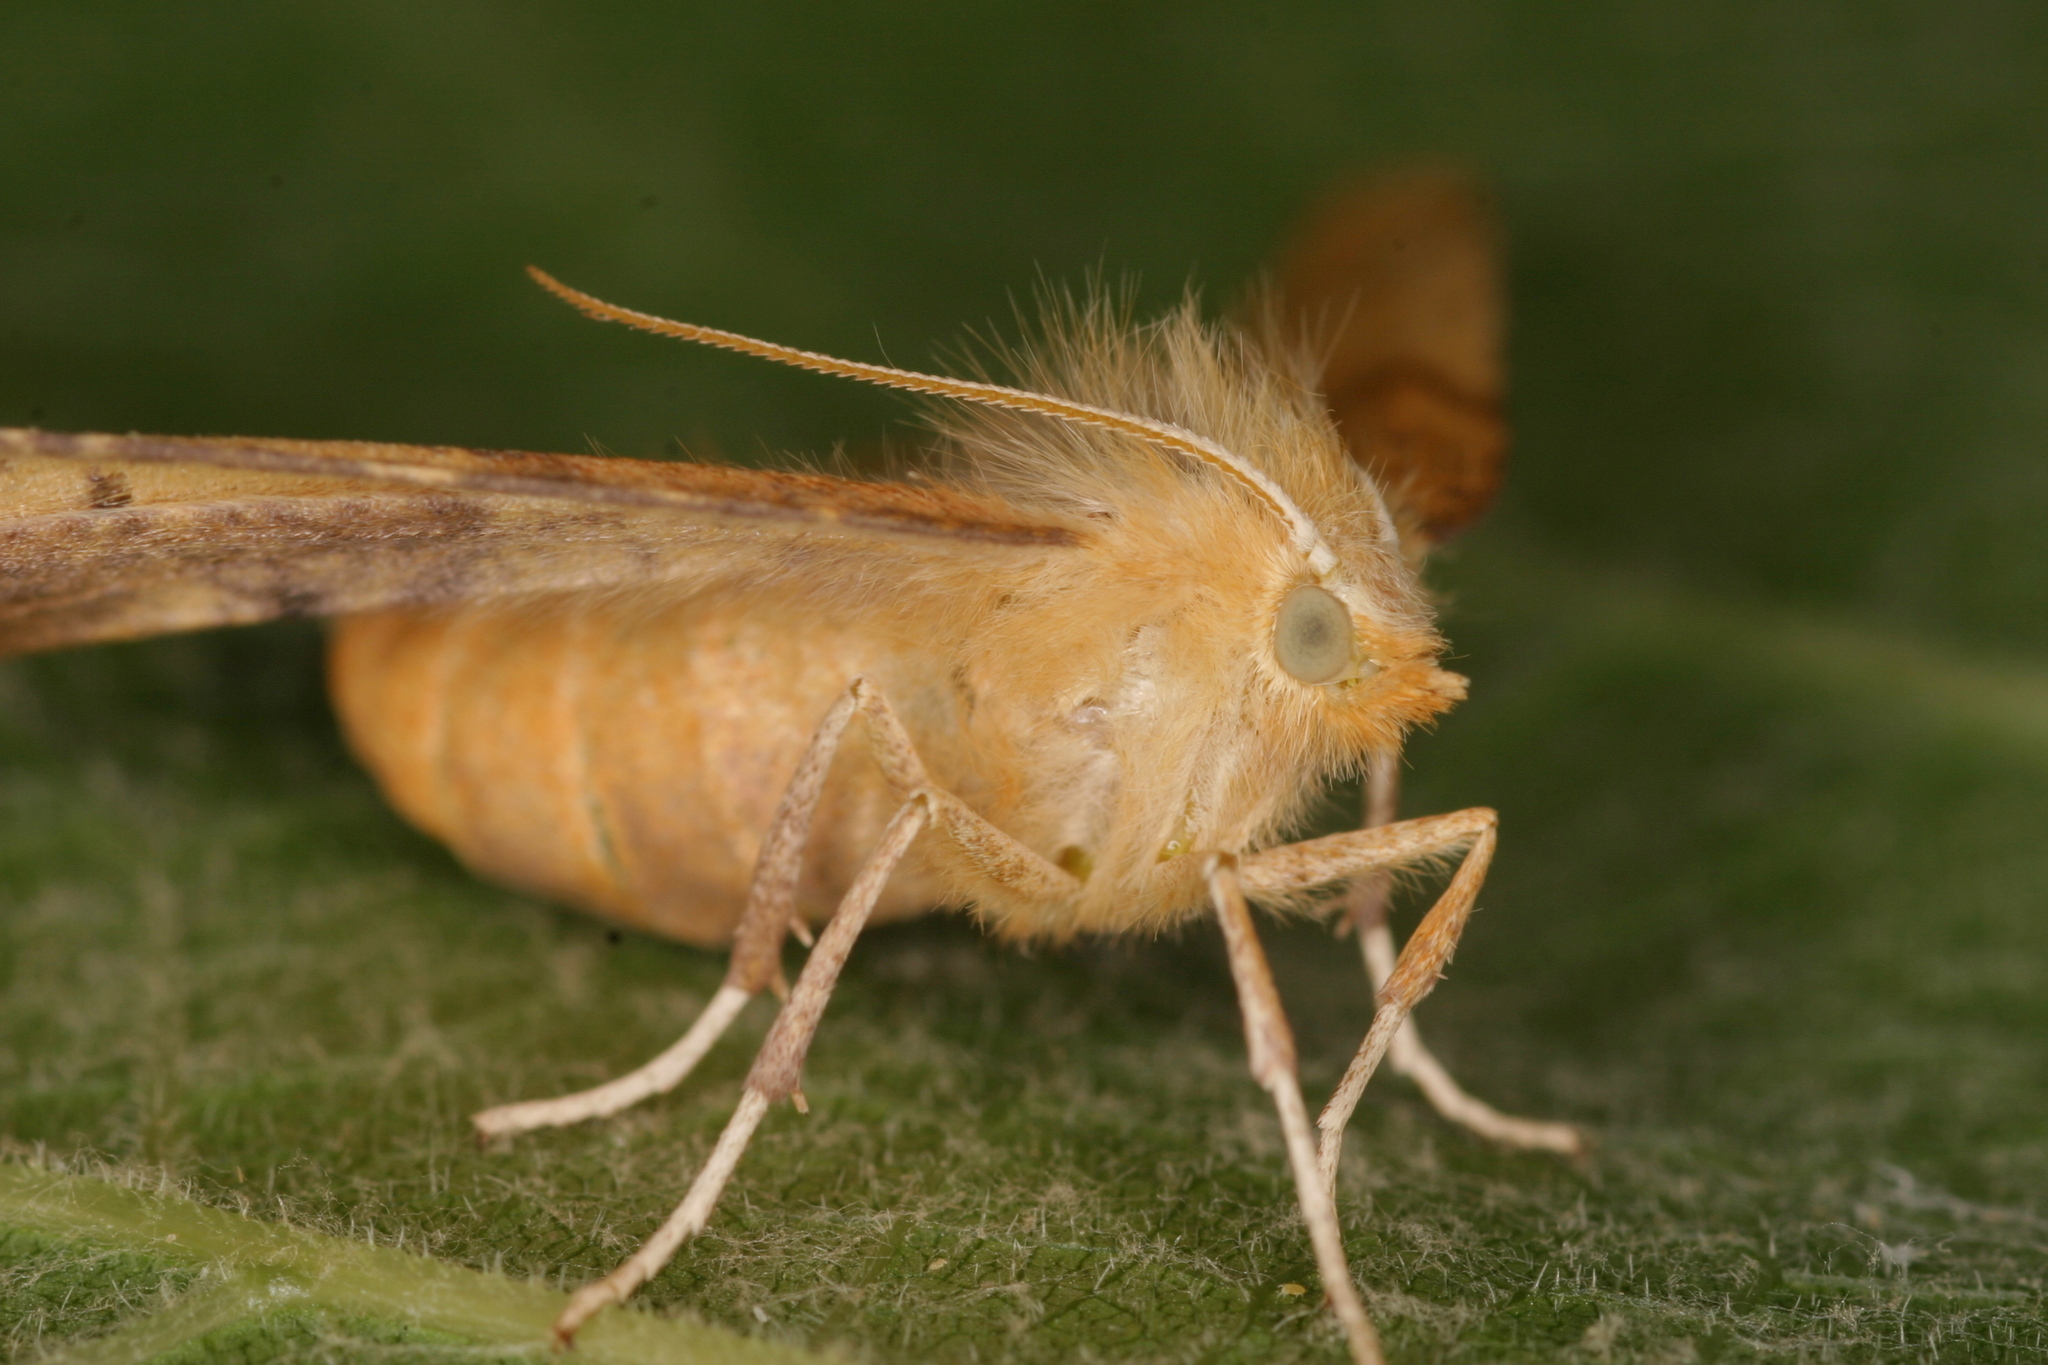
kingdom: Animalia
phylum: Arthropoda
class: Insecta
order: Lepidoptera
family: Geometridae
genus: Ennomos
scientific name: Ennomos quercinaria
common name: August thorn
